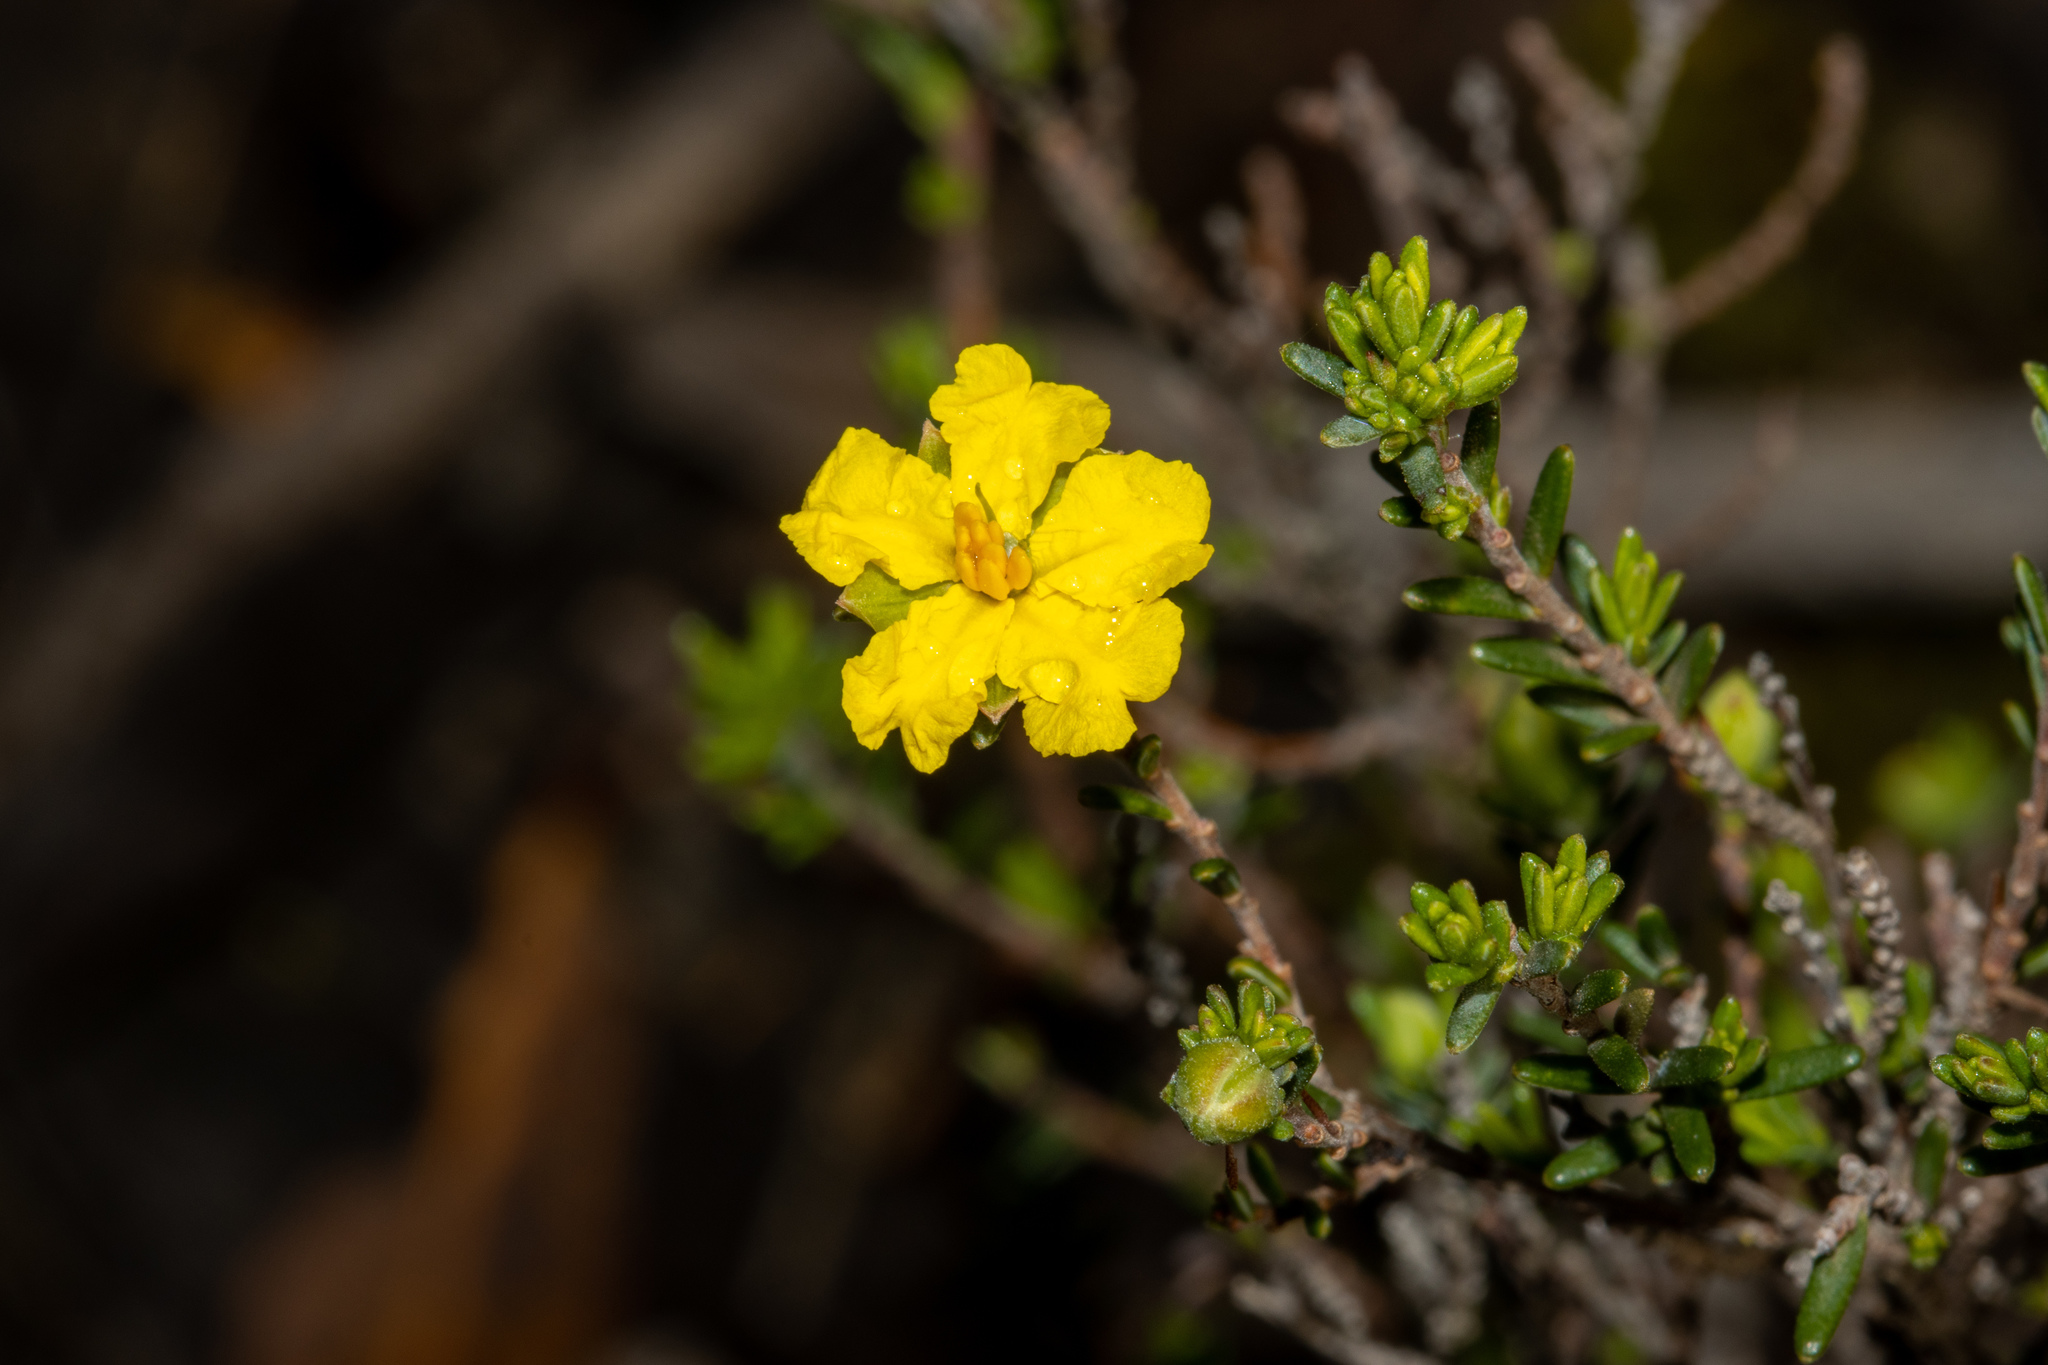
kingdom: Plantae
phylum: Tracheophyta
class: Magnoliopsida
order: Dilleniales
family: Dilleniaceae
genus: Hibbertia
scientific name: Hibbertia devitata
